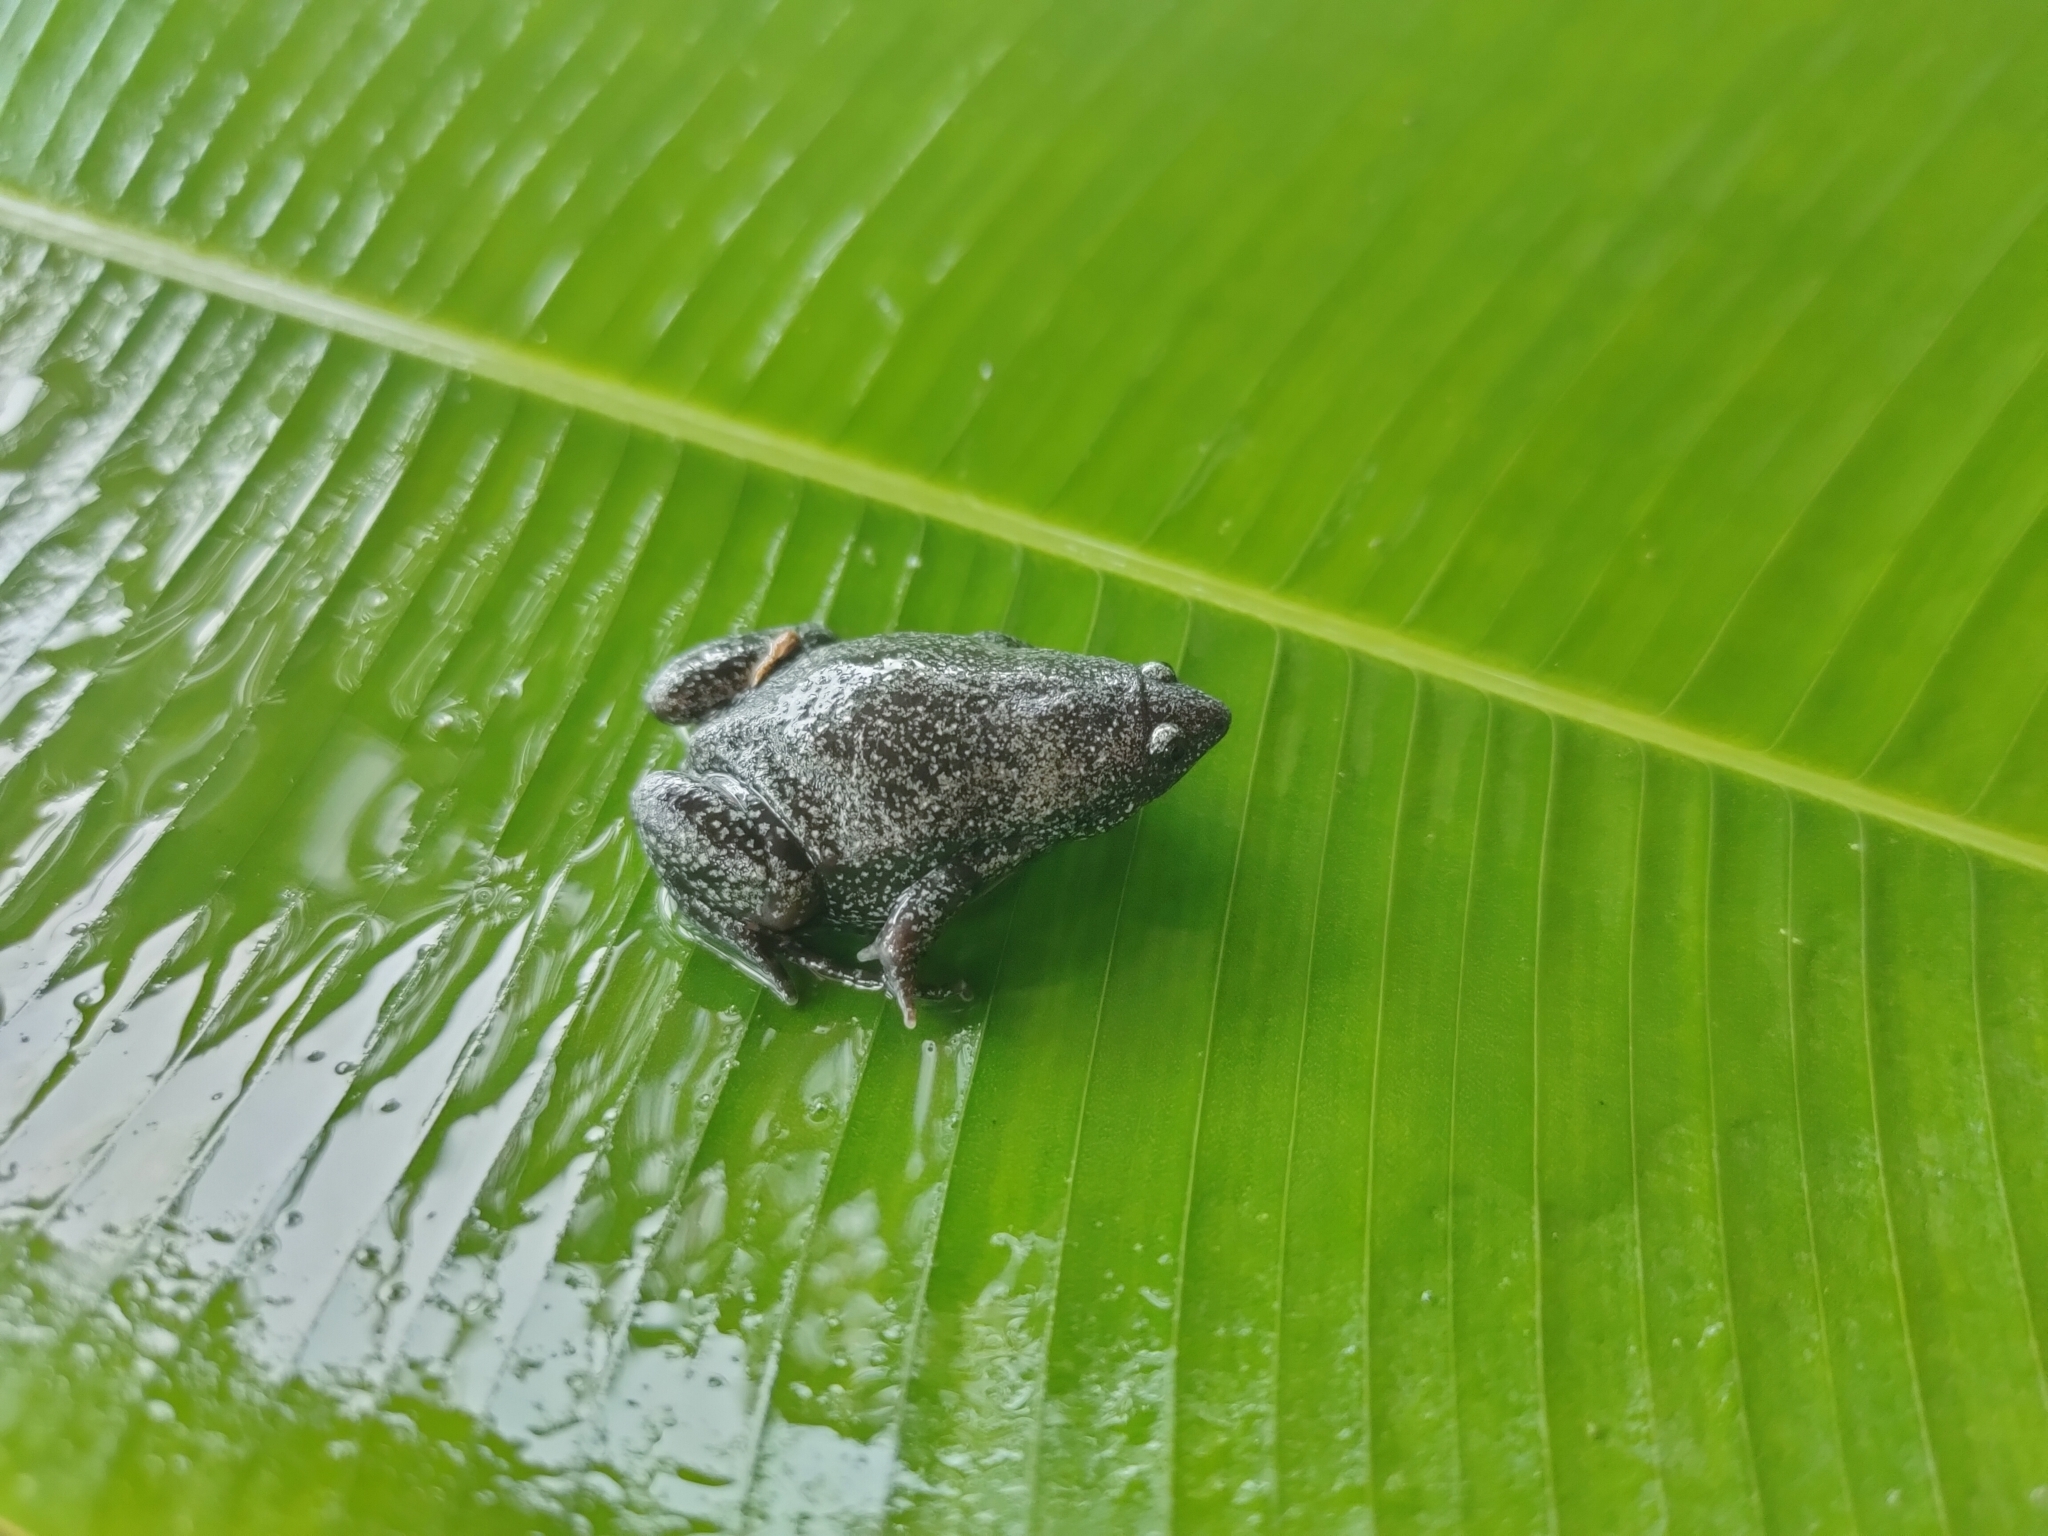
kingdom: Animalia
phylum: Chordata
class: Amphibia
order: Anura
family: Microhylidae
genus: Elachistocleis
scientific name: Elachistocleis pearsei
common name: Colombian plump frog
